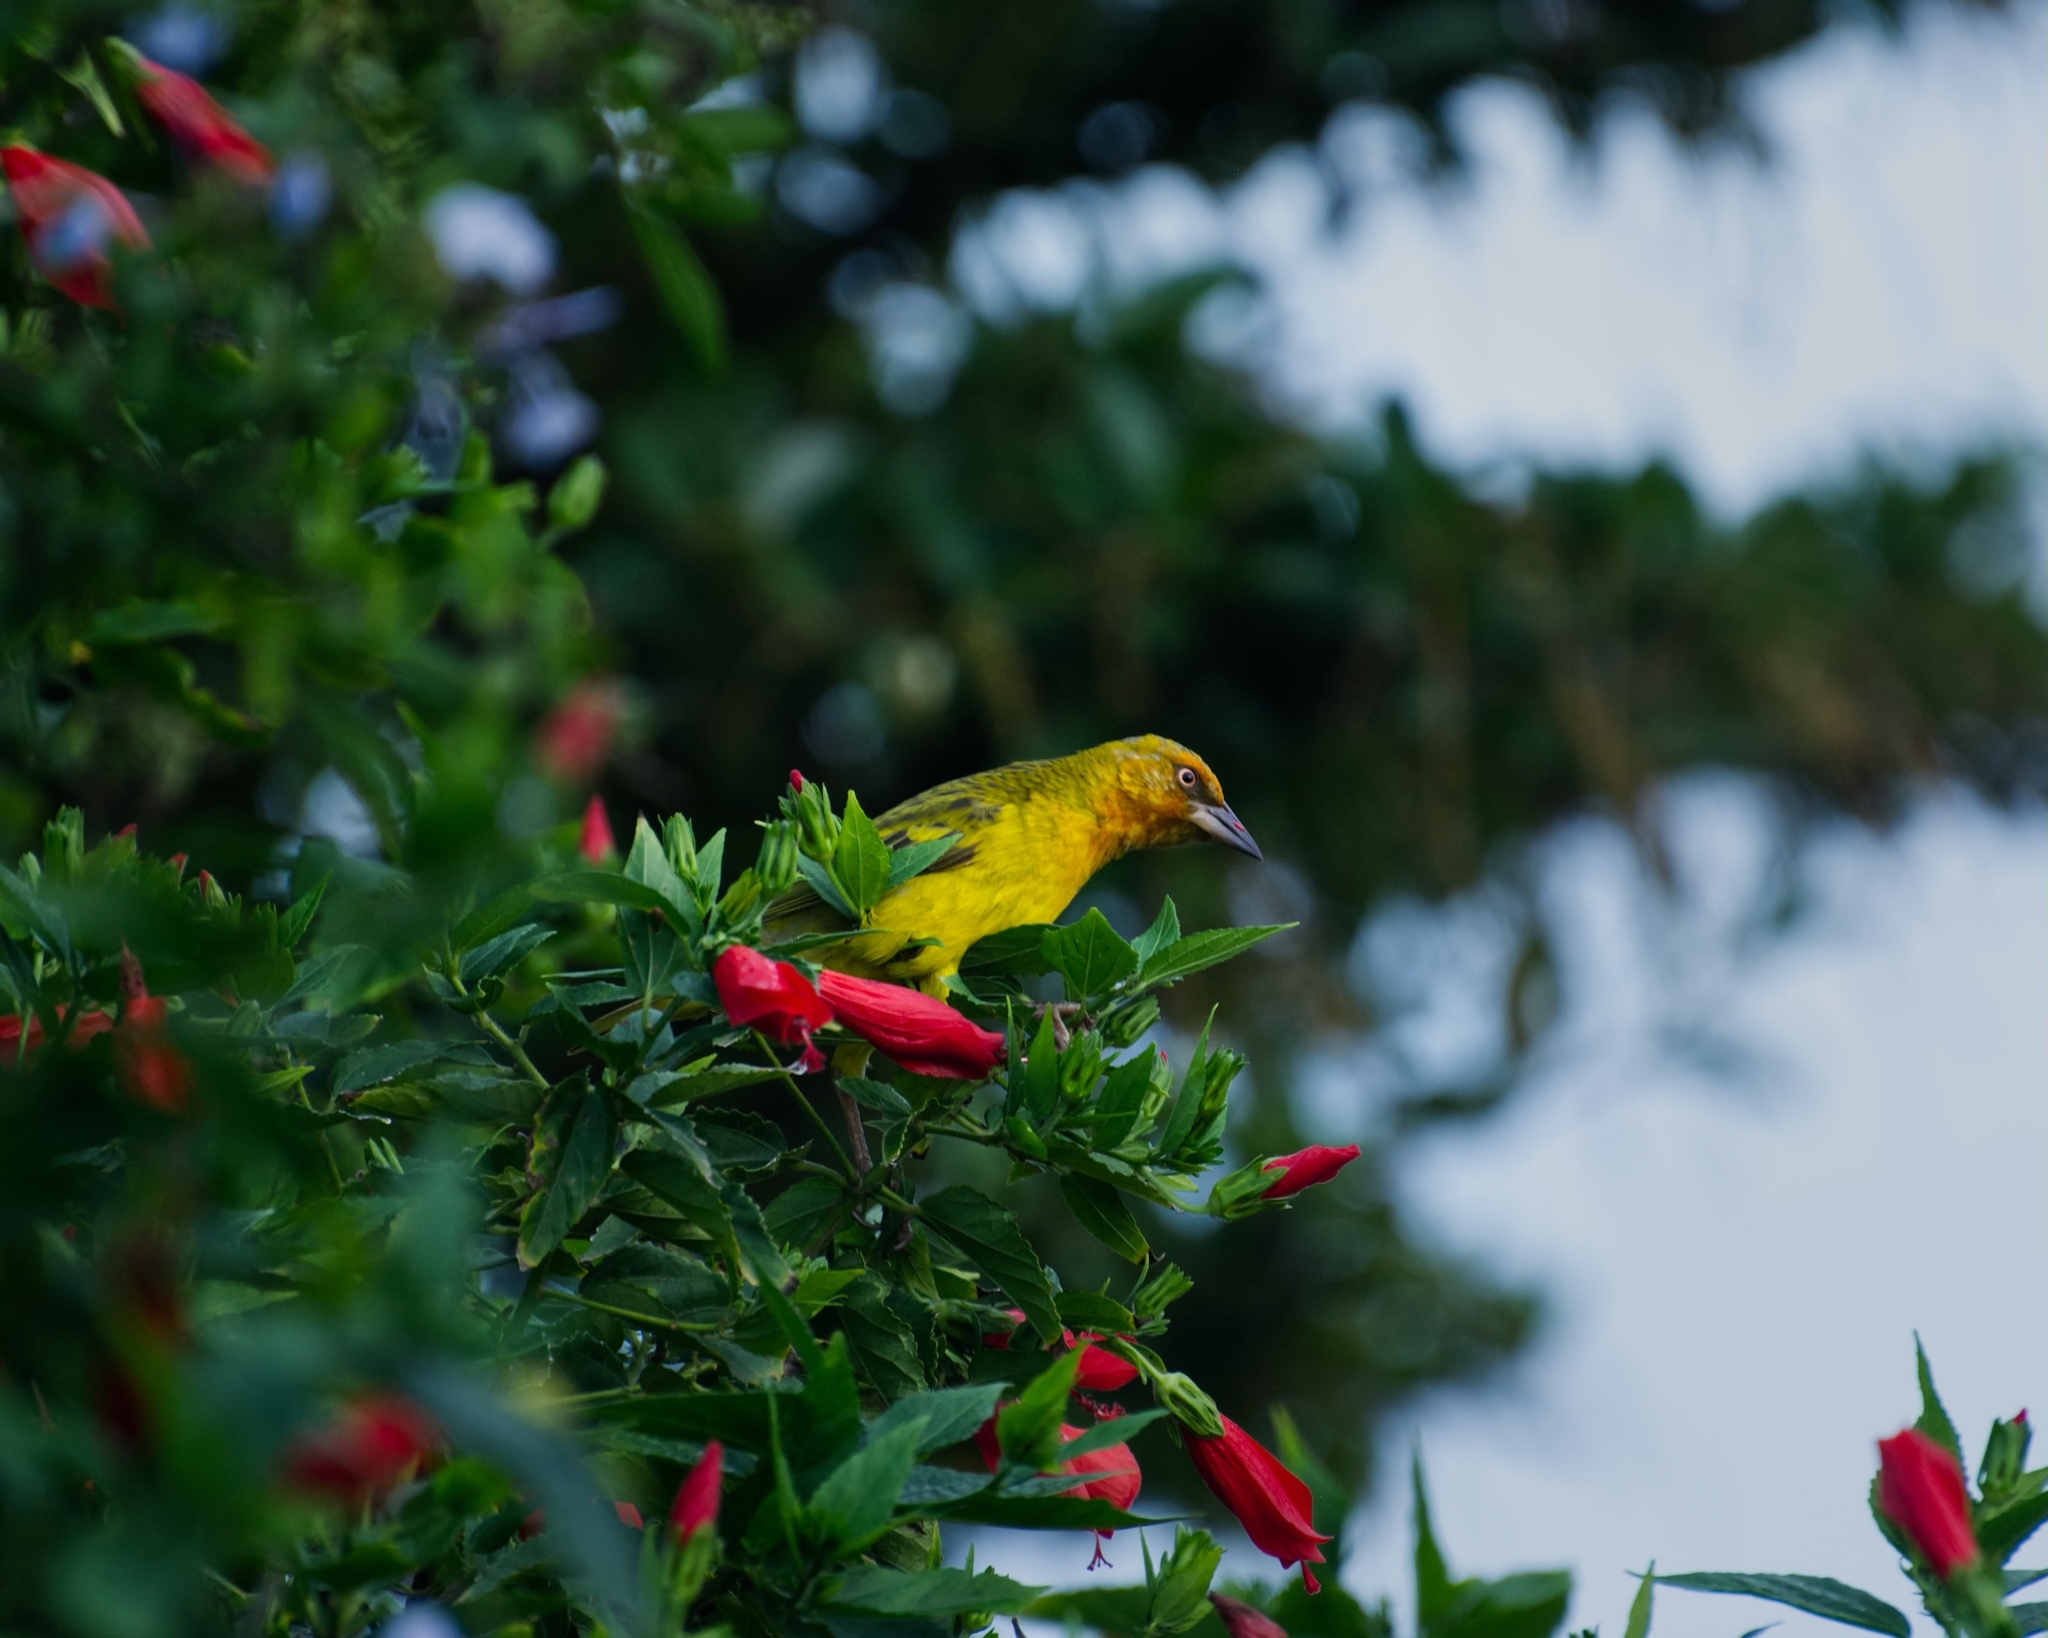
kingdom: Animalia
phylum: Chordata
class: Aves
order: Passeriformes
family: Ploceidae
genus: Ploceus
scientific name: Ploceus capensis
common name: Cape weaver
